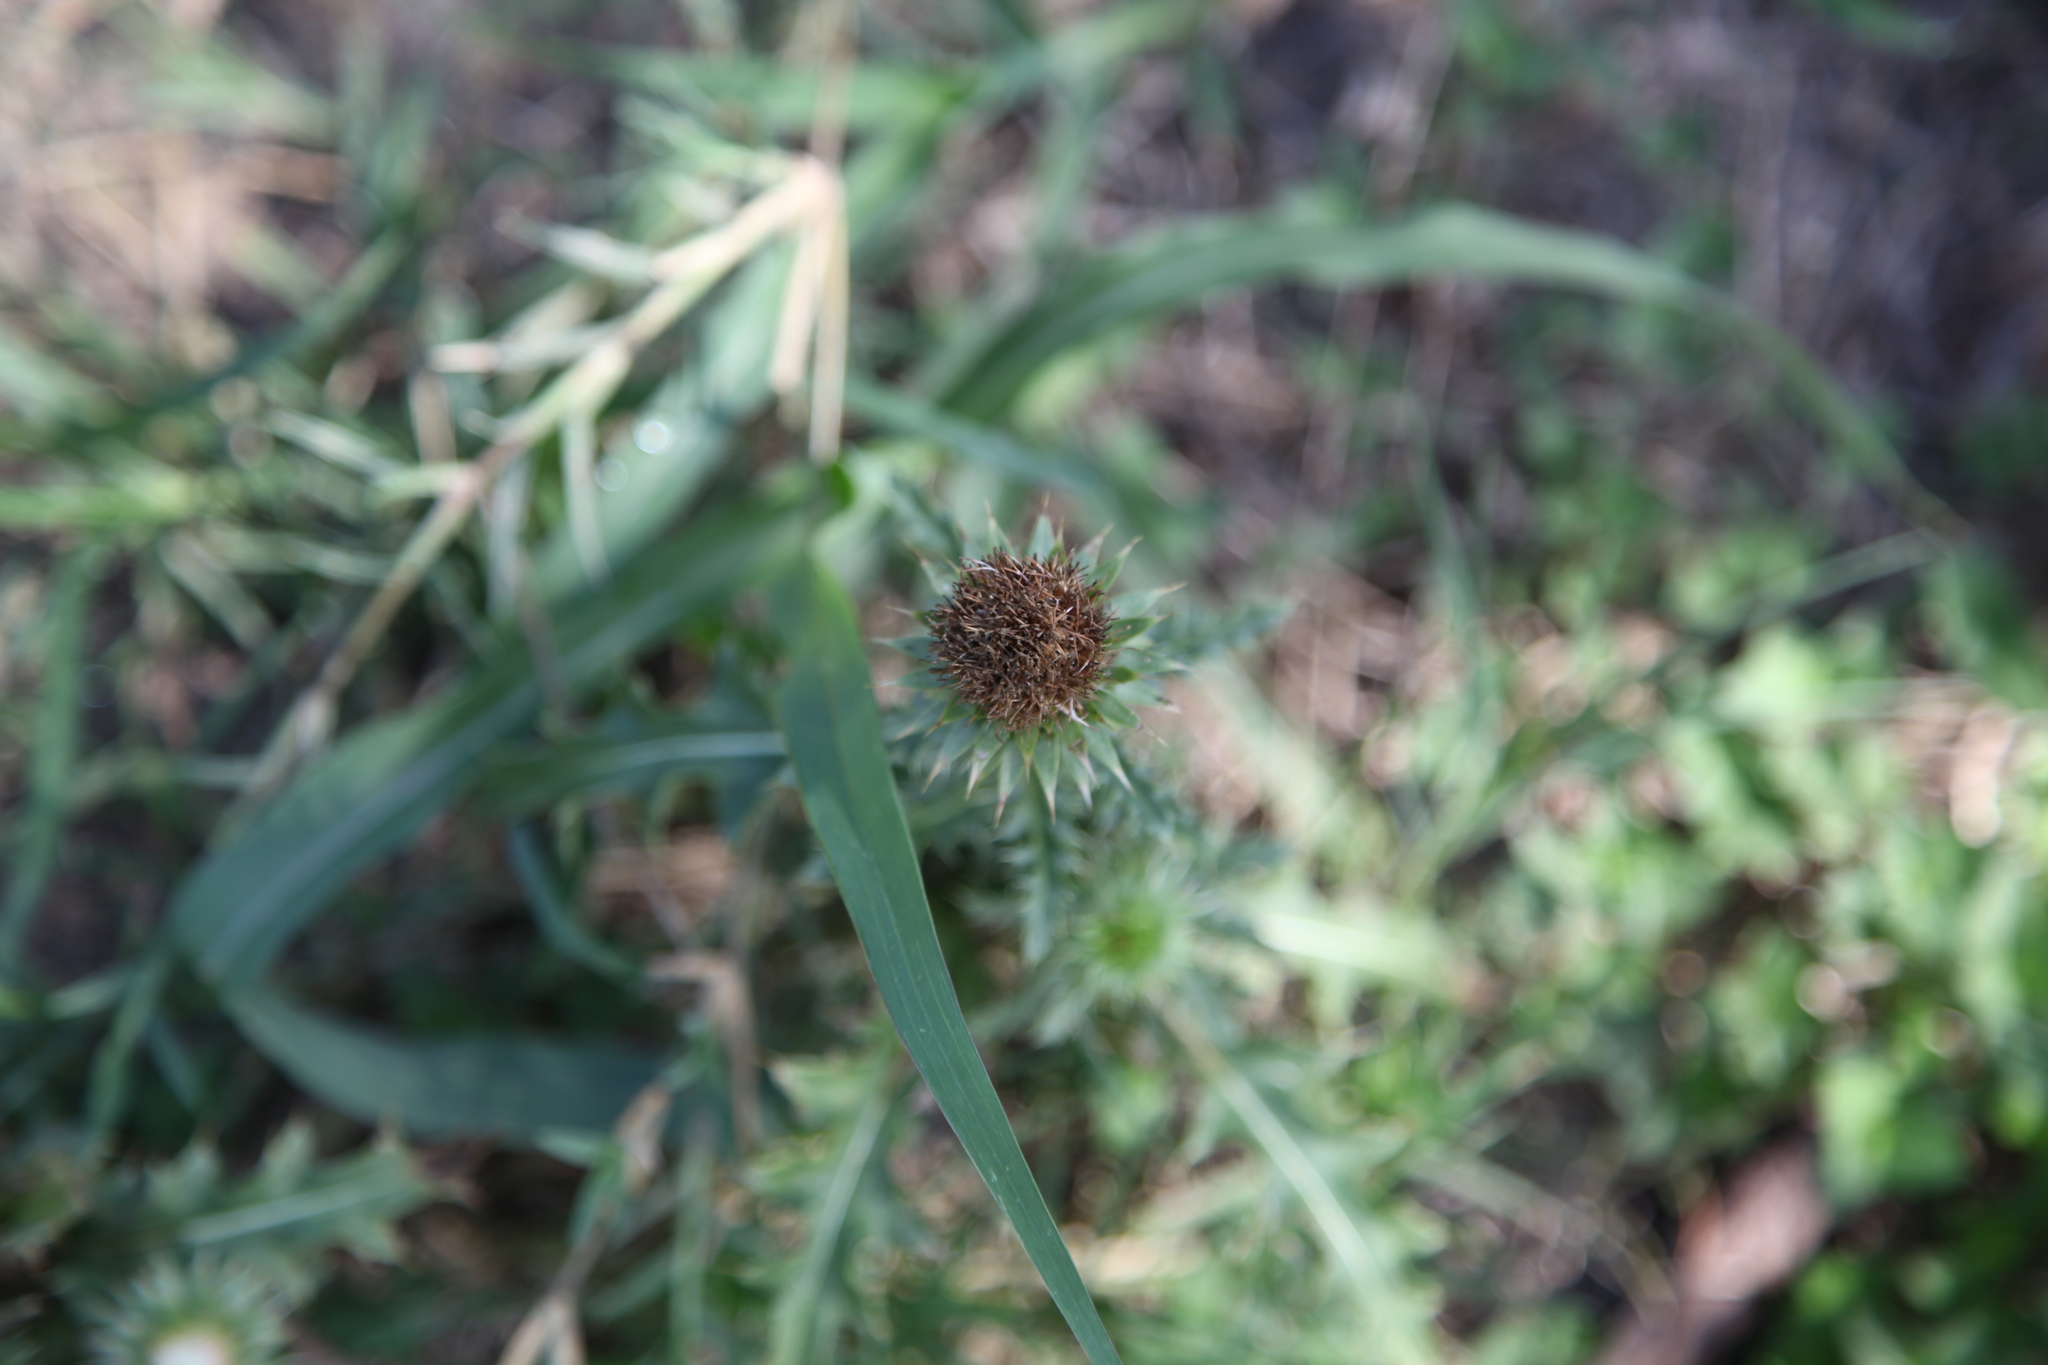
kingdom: Plantae
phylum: Tracheophyta
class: Magnoliopsida
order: Asterales
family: Asteraceae
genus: Carduus
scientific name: Carduus nutans
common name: Musk thistle
